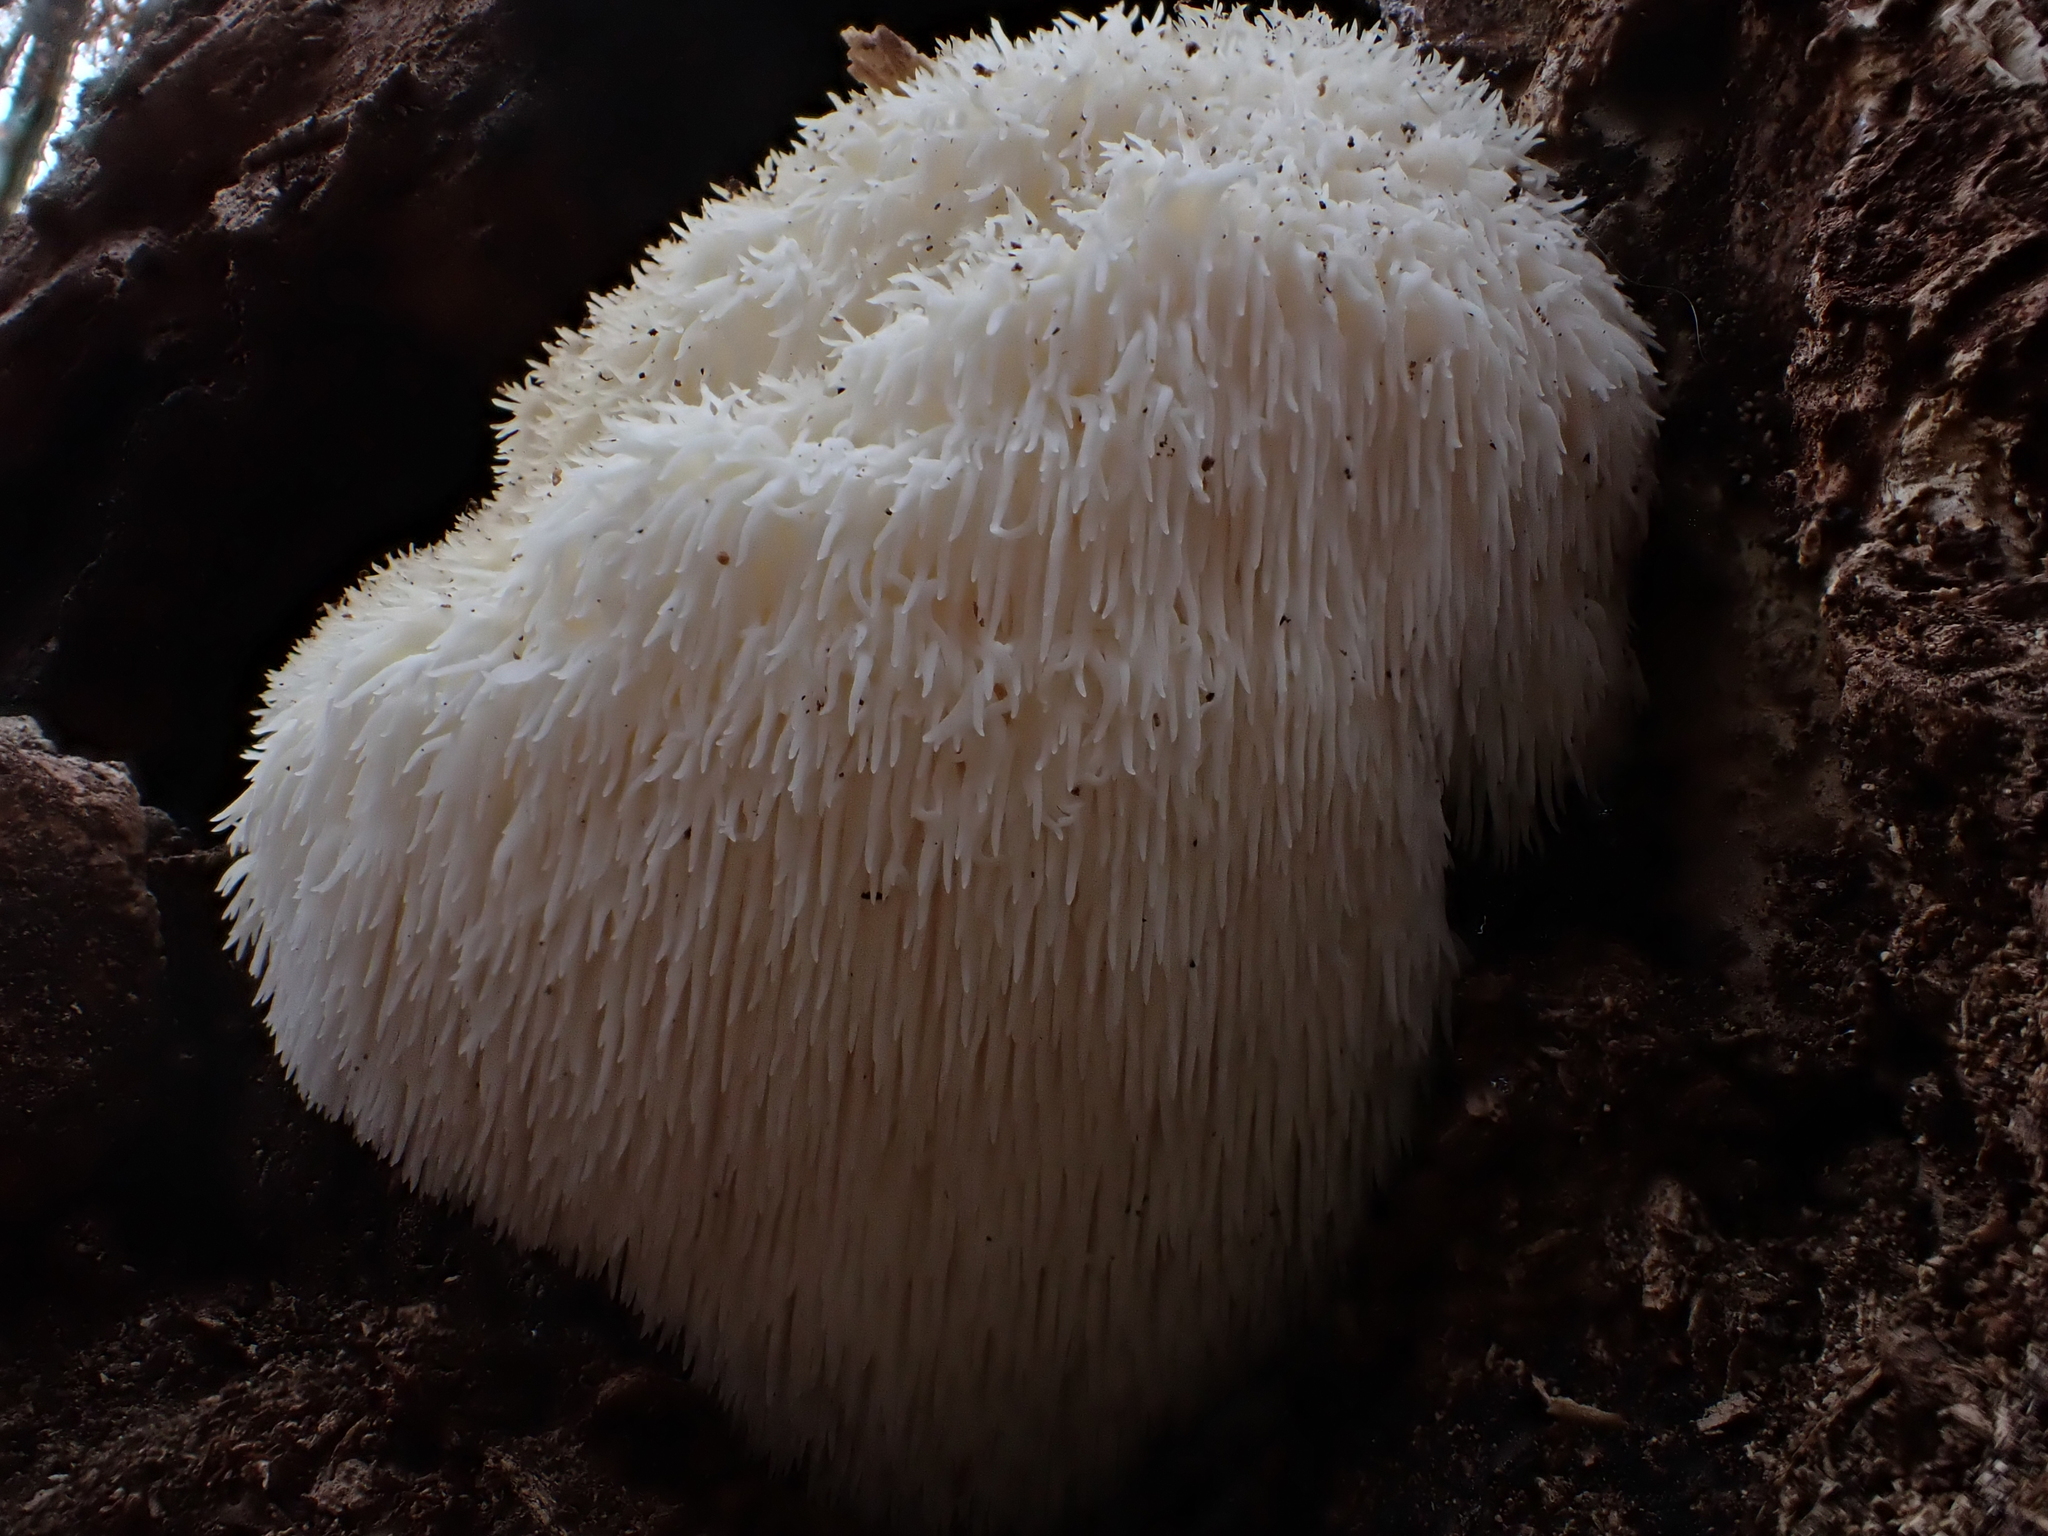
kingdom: Fungi
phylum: Basidiomycota
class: Agaricomycetes
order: Russulales
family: Hericiaceae
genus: Hericium
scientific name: Hericium erinaceus
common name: Bearded tooth
